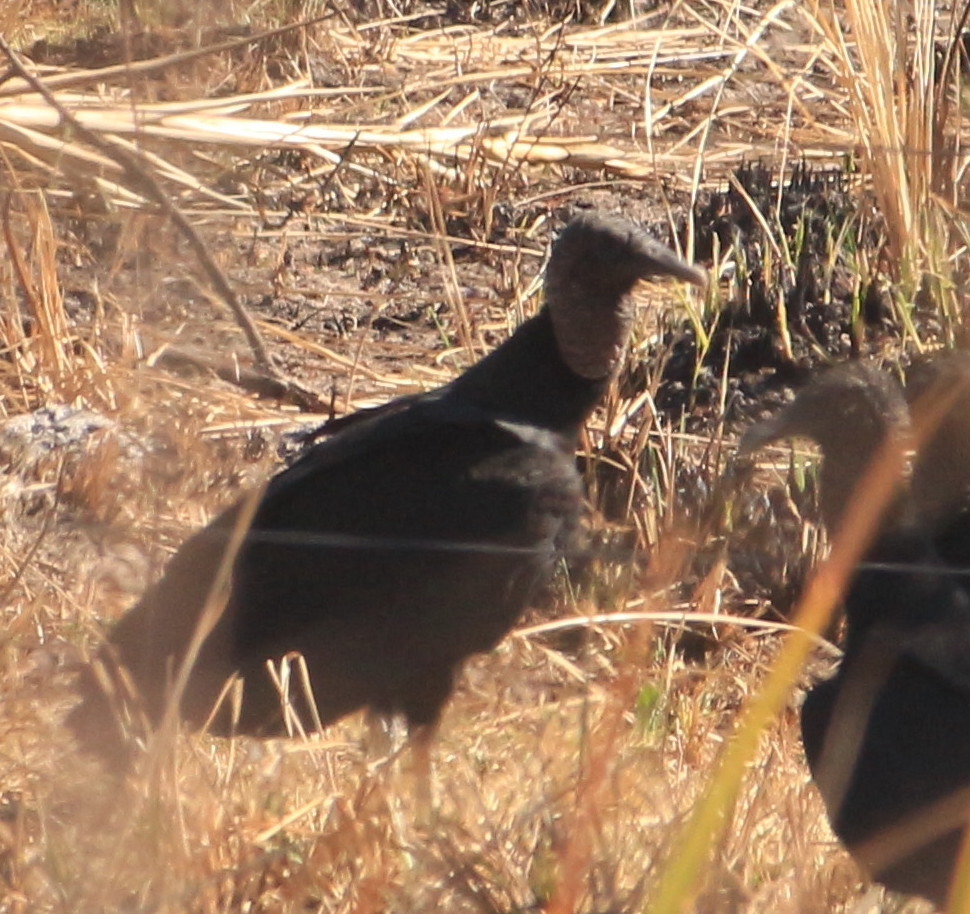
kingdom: Animalia
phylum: Chordata
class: Aves
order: Accipitriformes
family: Cathartidae
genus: Coragyps
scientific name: Coragyps atratus
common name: Black vulture
